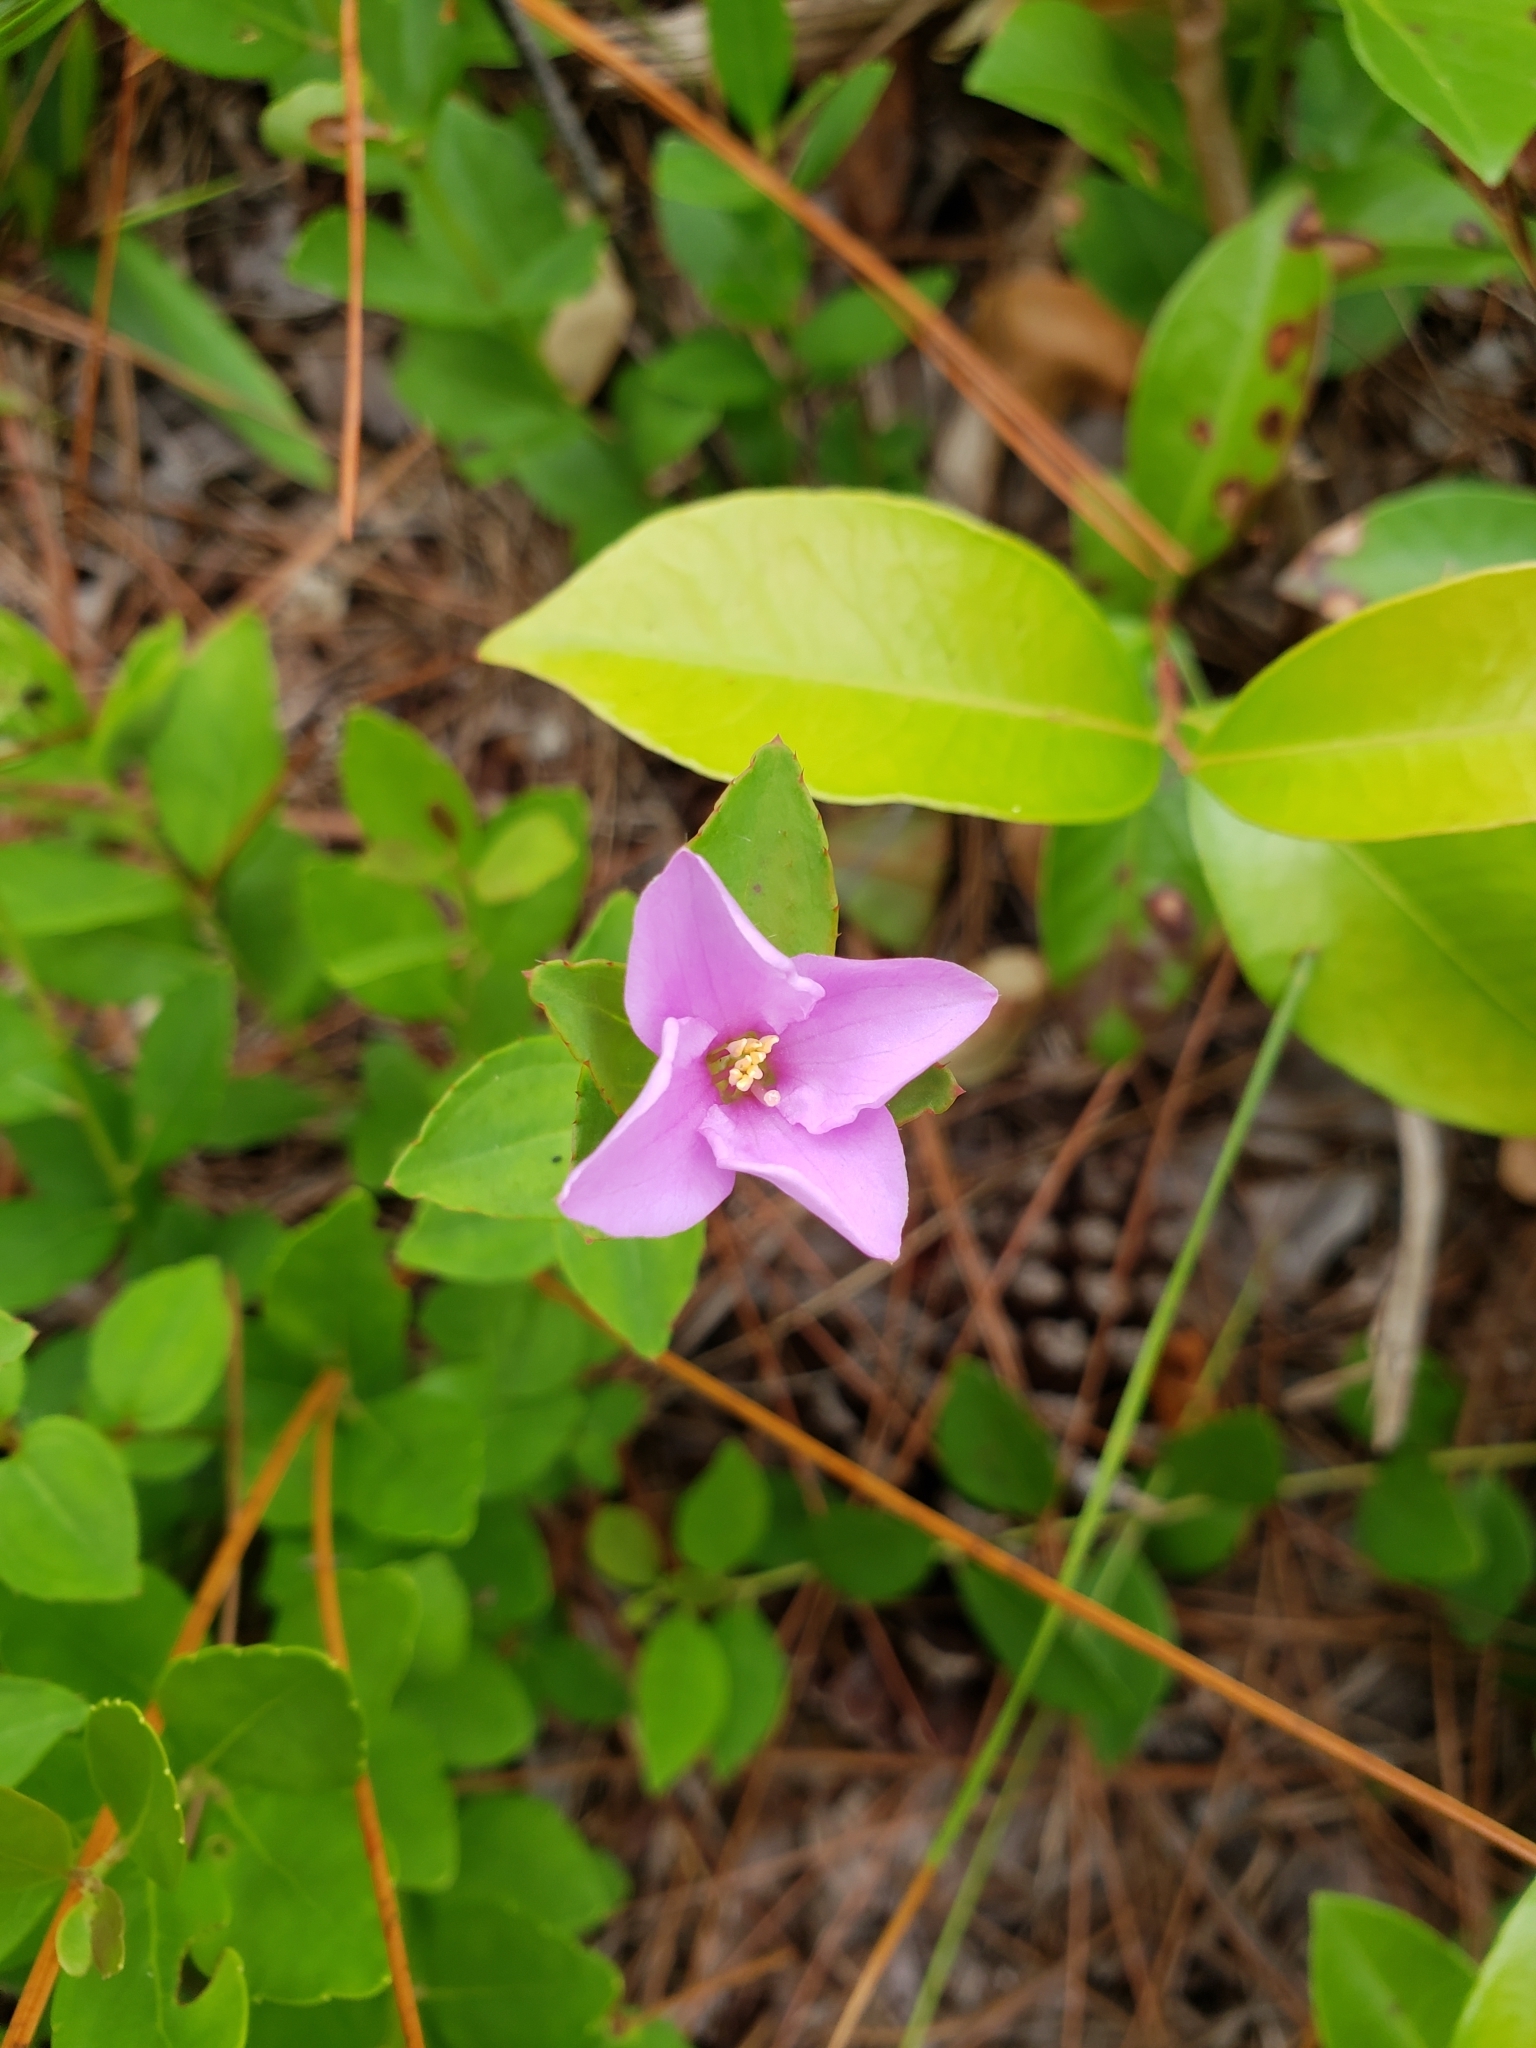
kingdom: Plantae
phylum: Tracheophyta
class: Magnoliopsida
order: Myrtales
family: Melastomataceae
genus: Rhexia
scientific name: Rhexia petiolata
